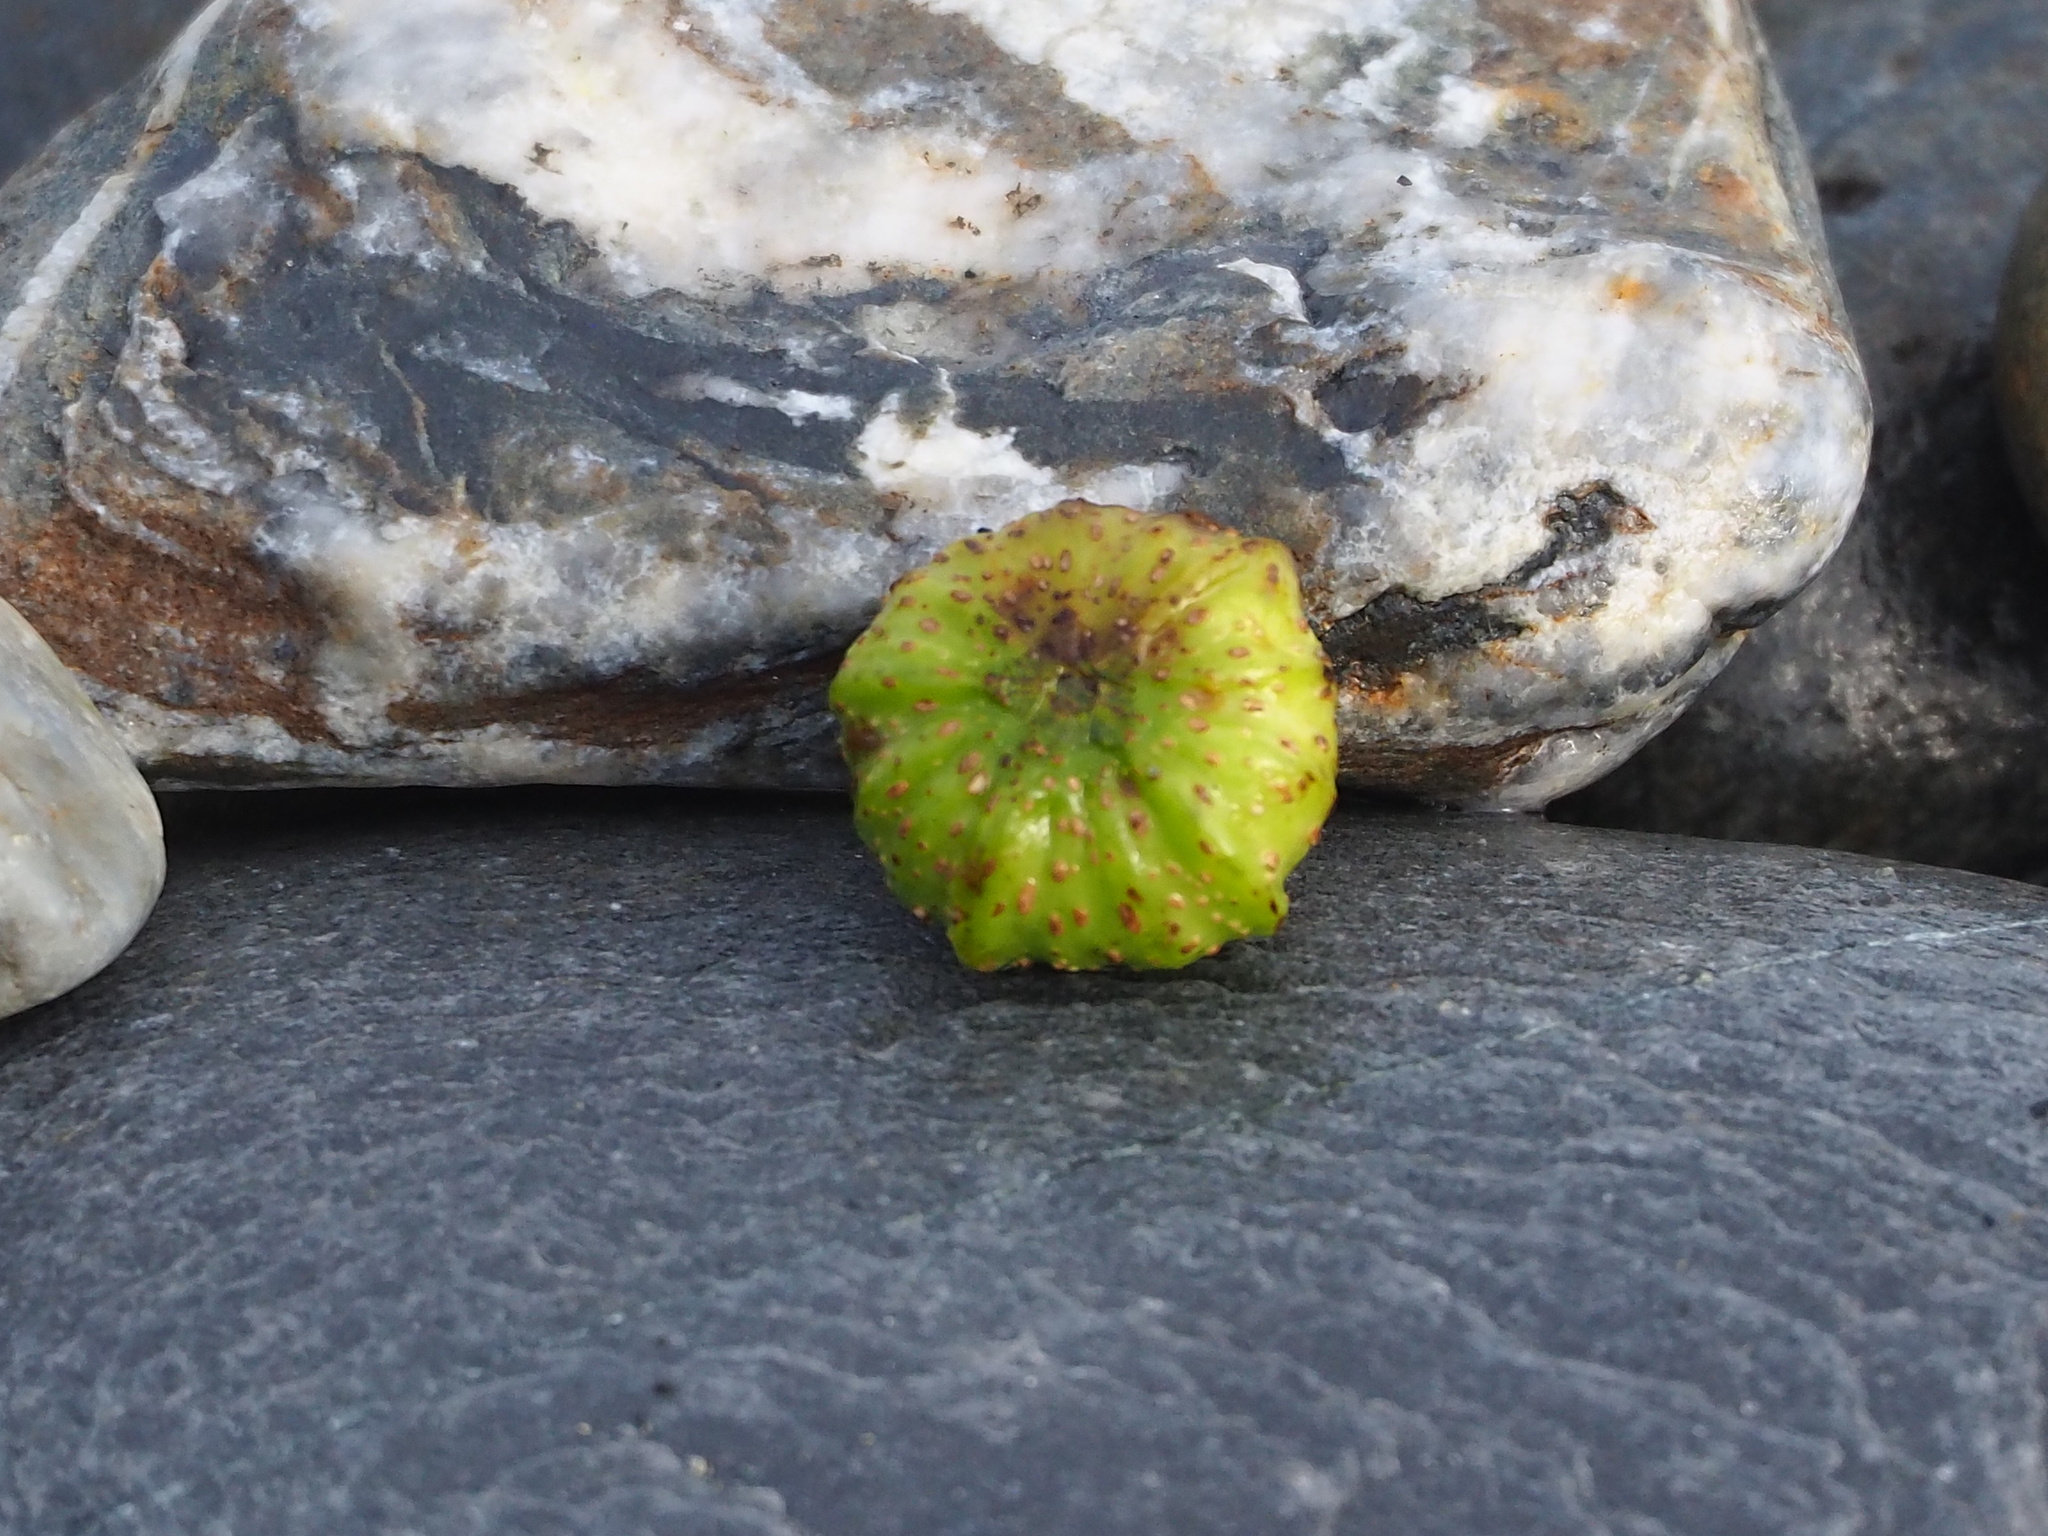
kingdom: Plantae
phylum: Tracheophyta
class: Magnoliopsida
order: Rosales
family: Moraceae
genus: Ficus
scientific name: Ficus septica
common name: Septic fig
